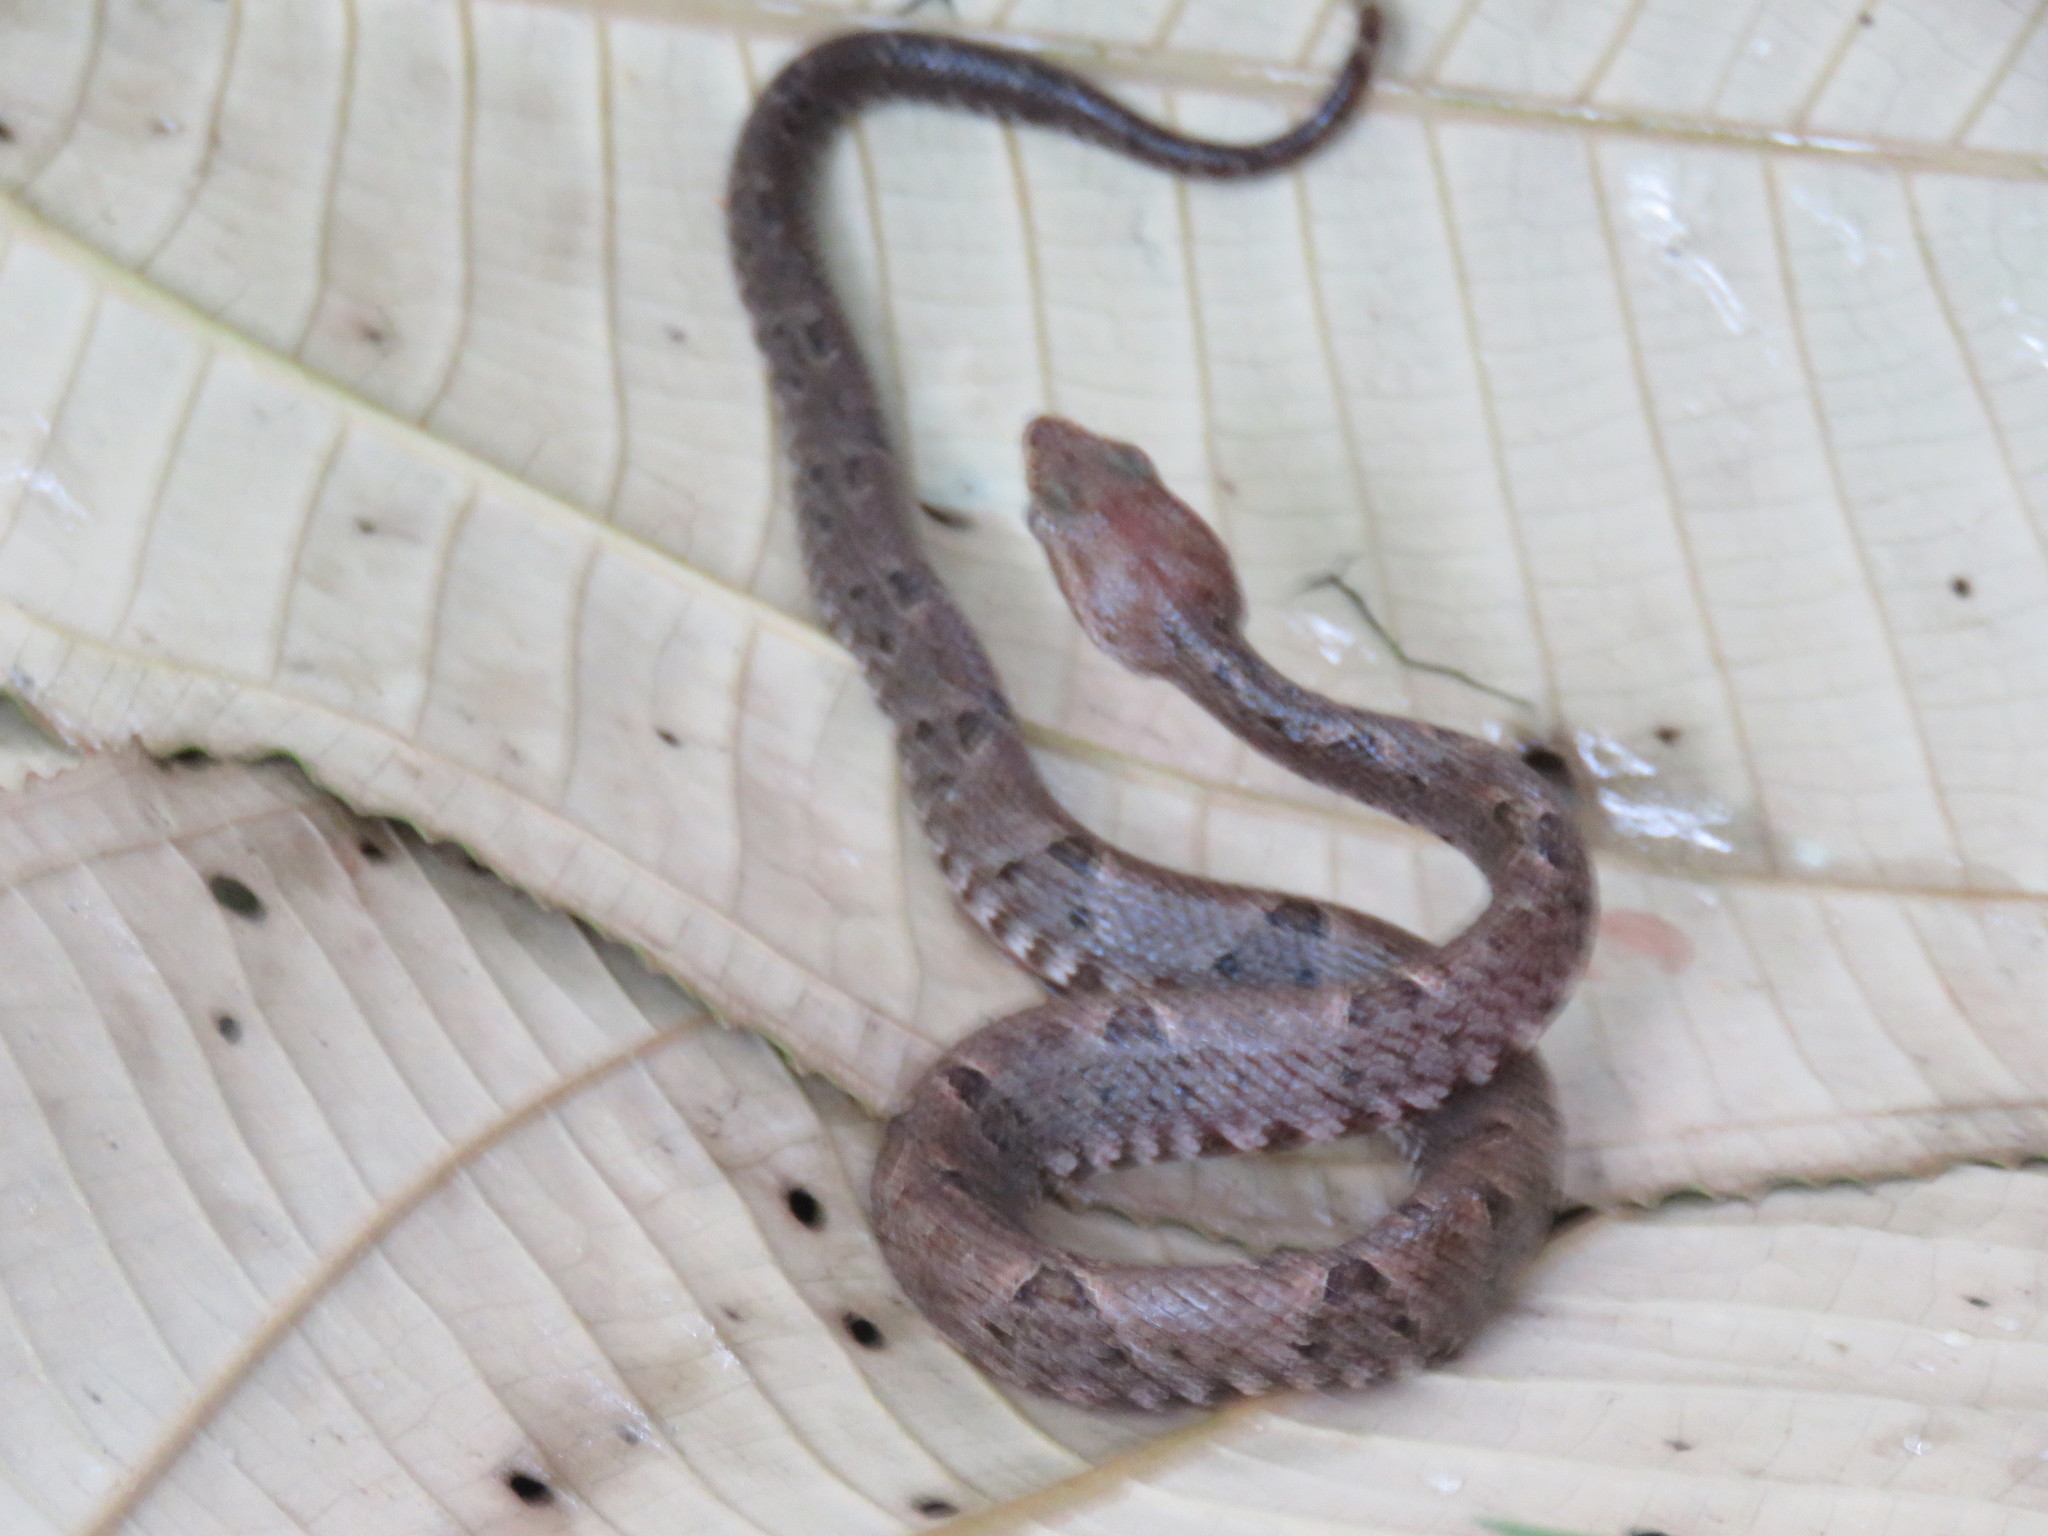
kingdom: Animalia
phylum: Chordata
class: Squamata
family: Viperidae
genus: Bothrops
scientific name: Bothrops asper
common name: Terciopelo
